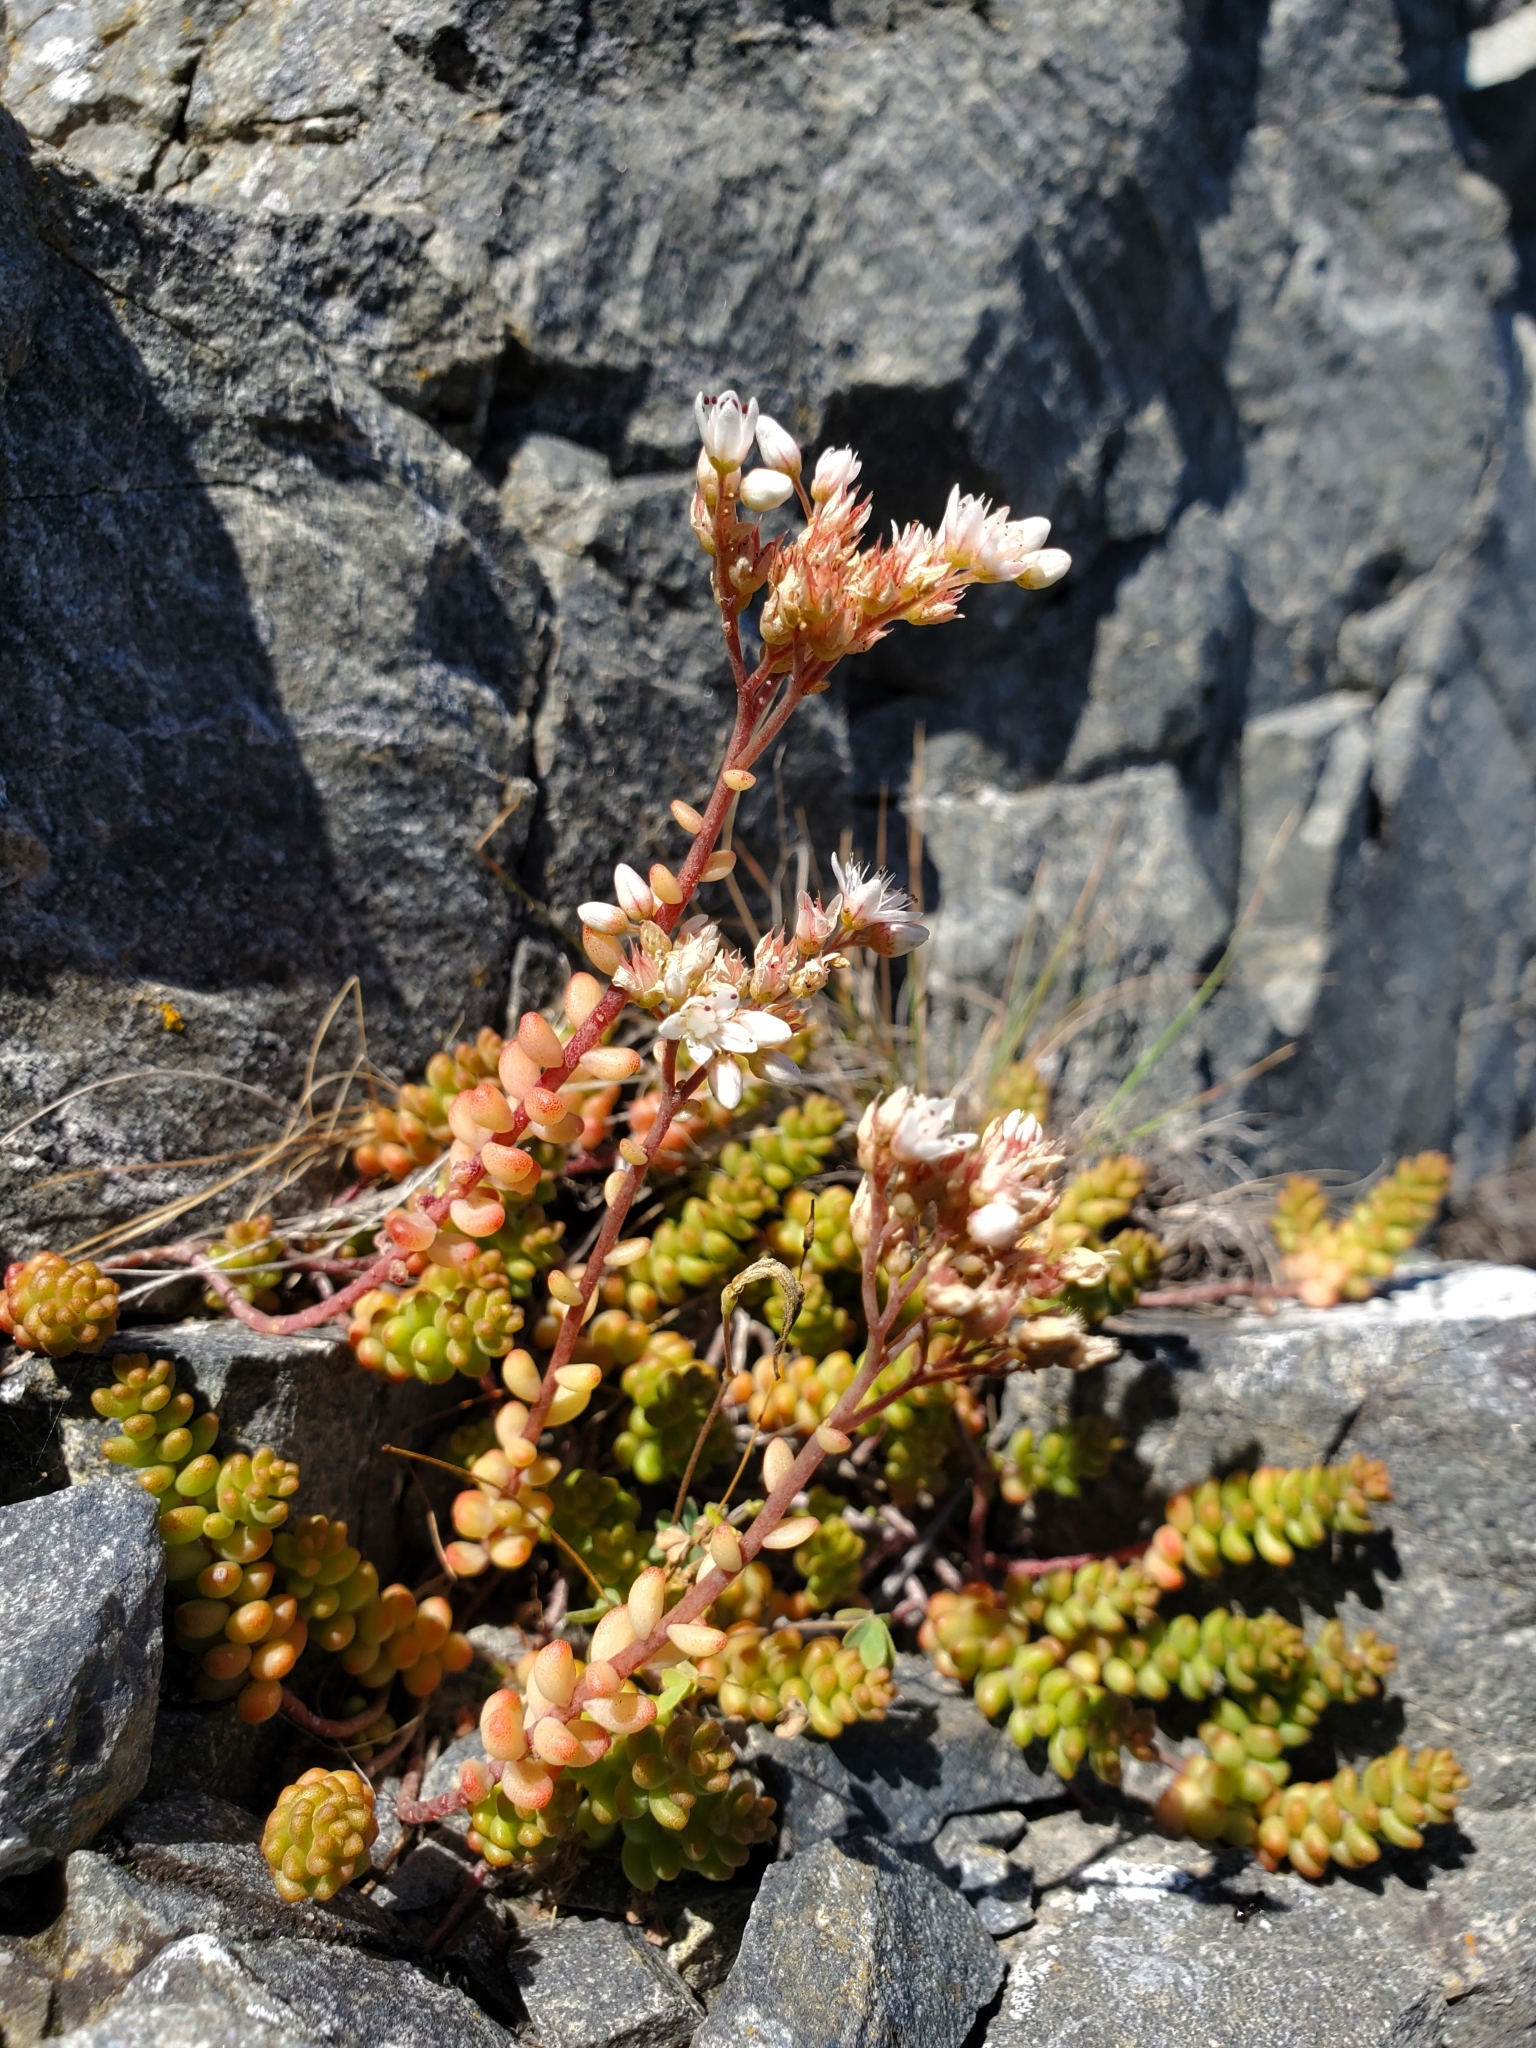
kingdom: Plantae
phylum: Tracheophyta
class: Magnoliopsida
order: Saxifragales
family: Crassulaceae
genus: Sedum
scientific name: Sedum album
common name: White stonecrop
